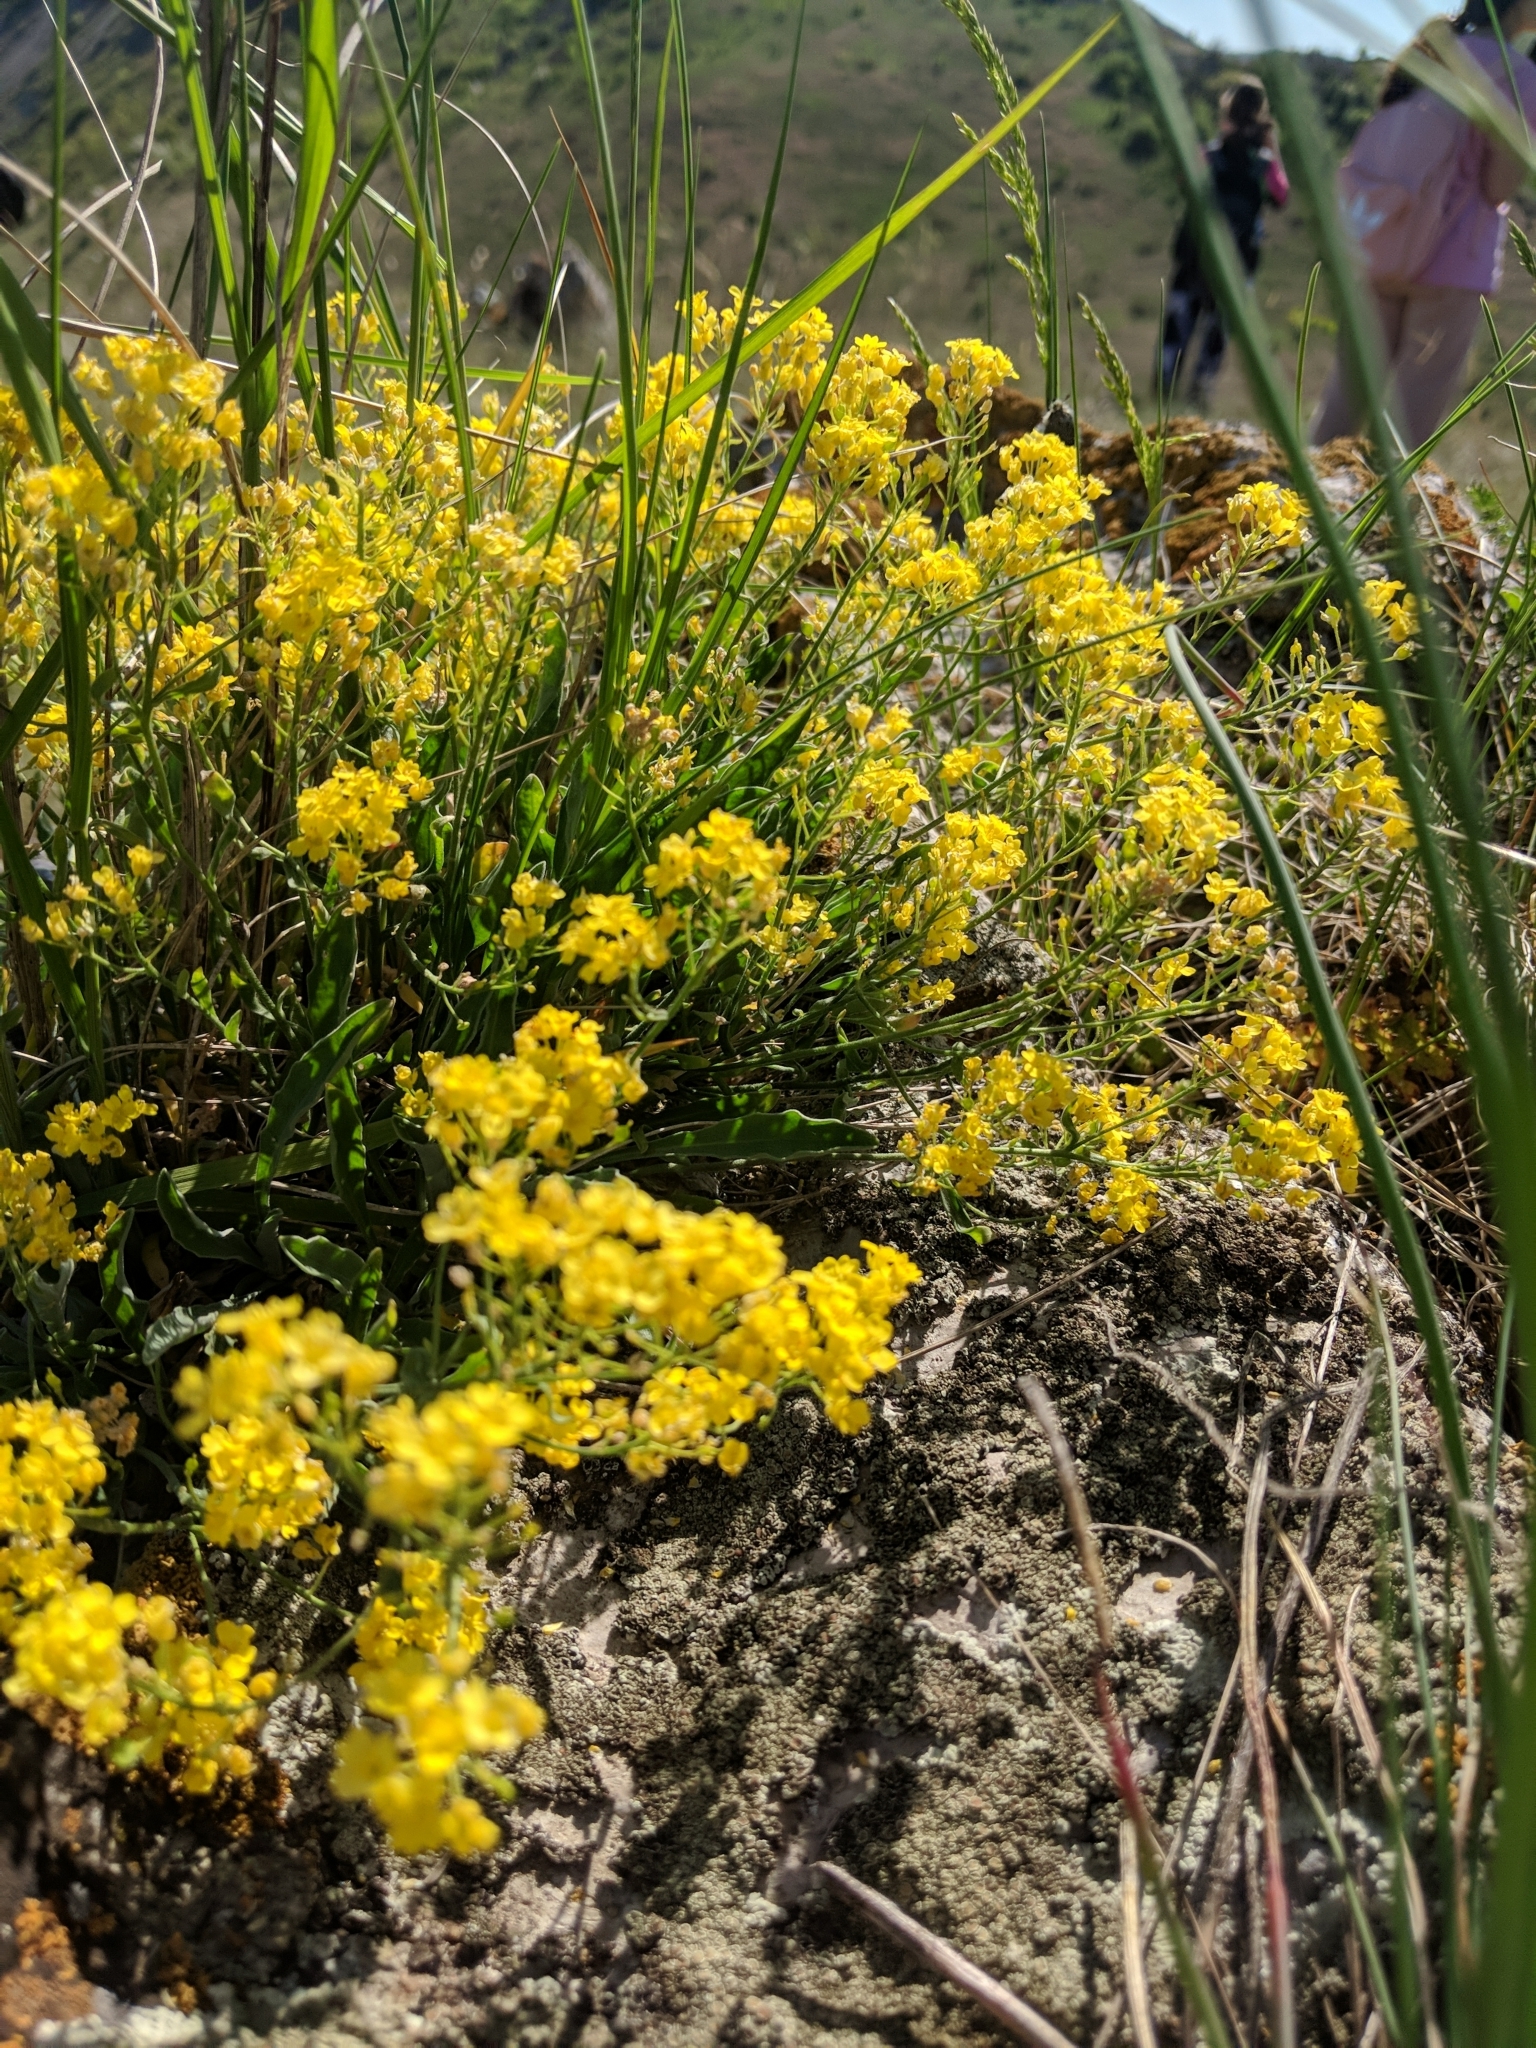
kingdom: Plantae
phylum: Tracheophyta
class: Magnoliopsida
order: Brassicales
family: Brassicaceae
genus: Aurinia
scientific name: Aurinia saxatilis
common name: Golden-tuft alyssum
